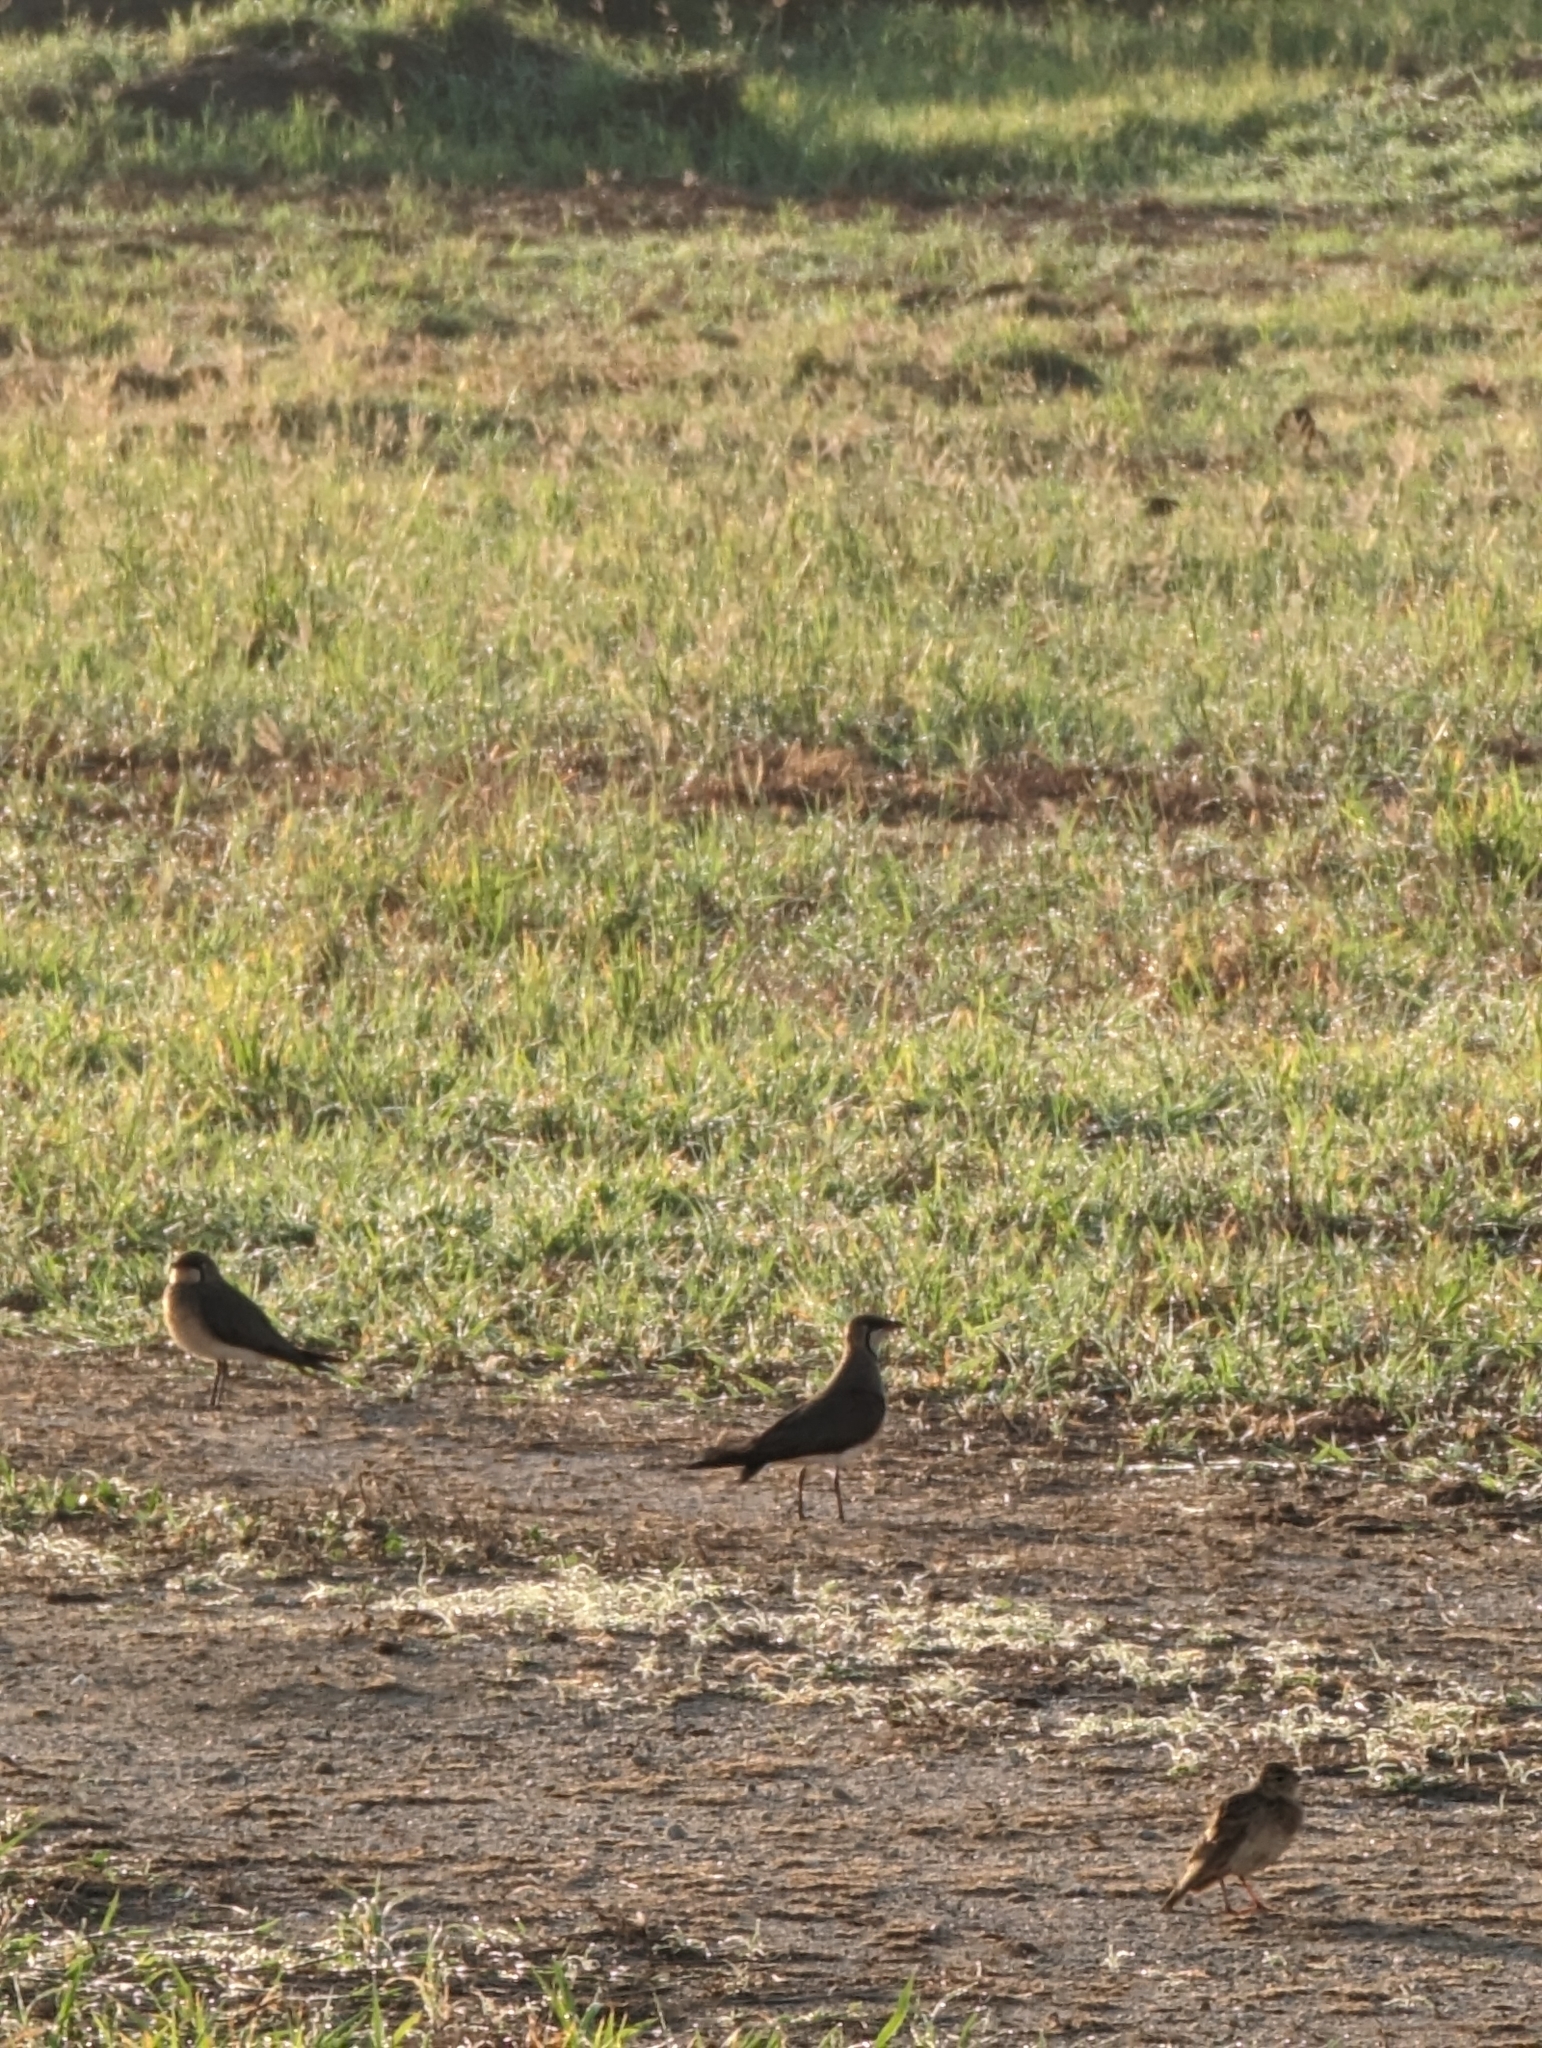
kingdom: Animalia
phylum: Chordata
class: Aves
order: Charadriiformes
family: Glareolidae
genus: Glareola
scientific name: Glareola maldivarum
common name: Oriental pratincole
